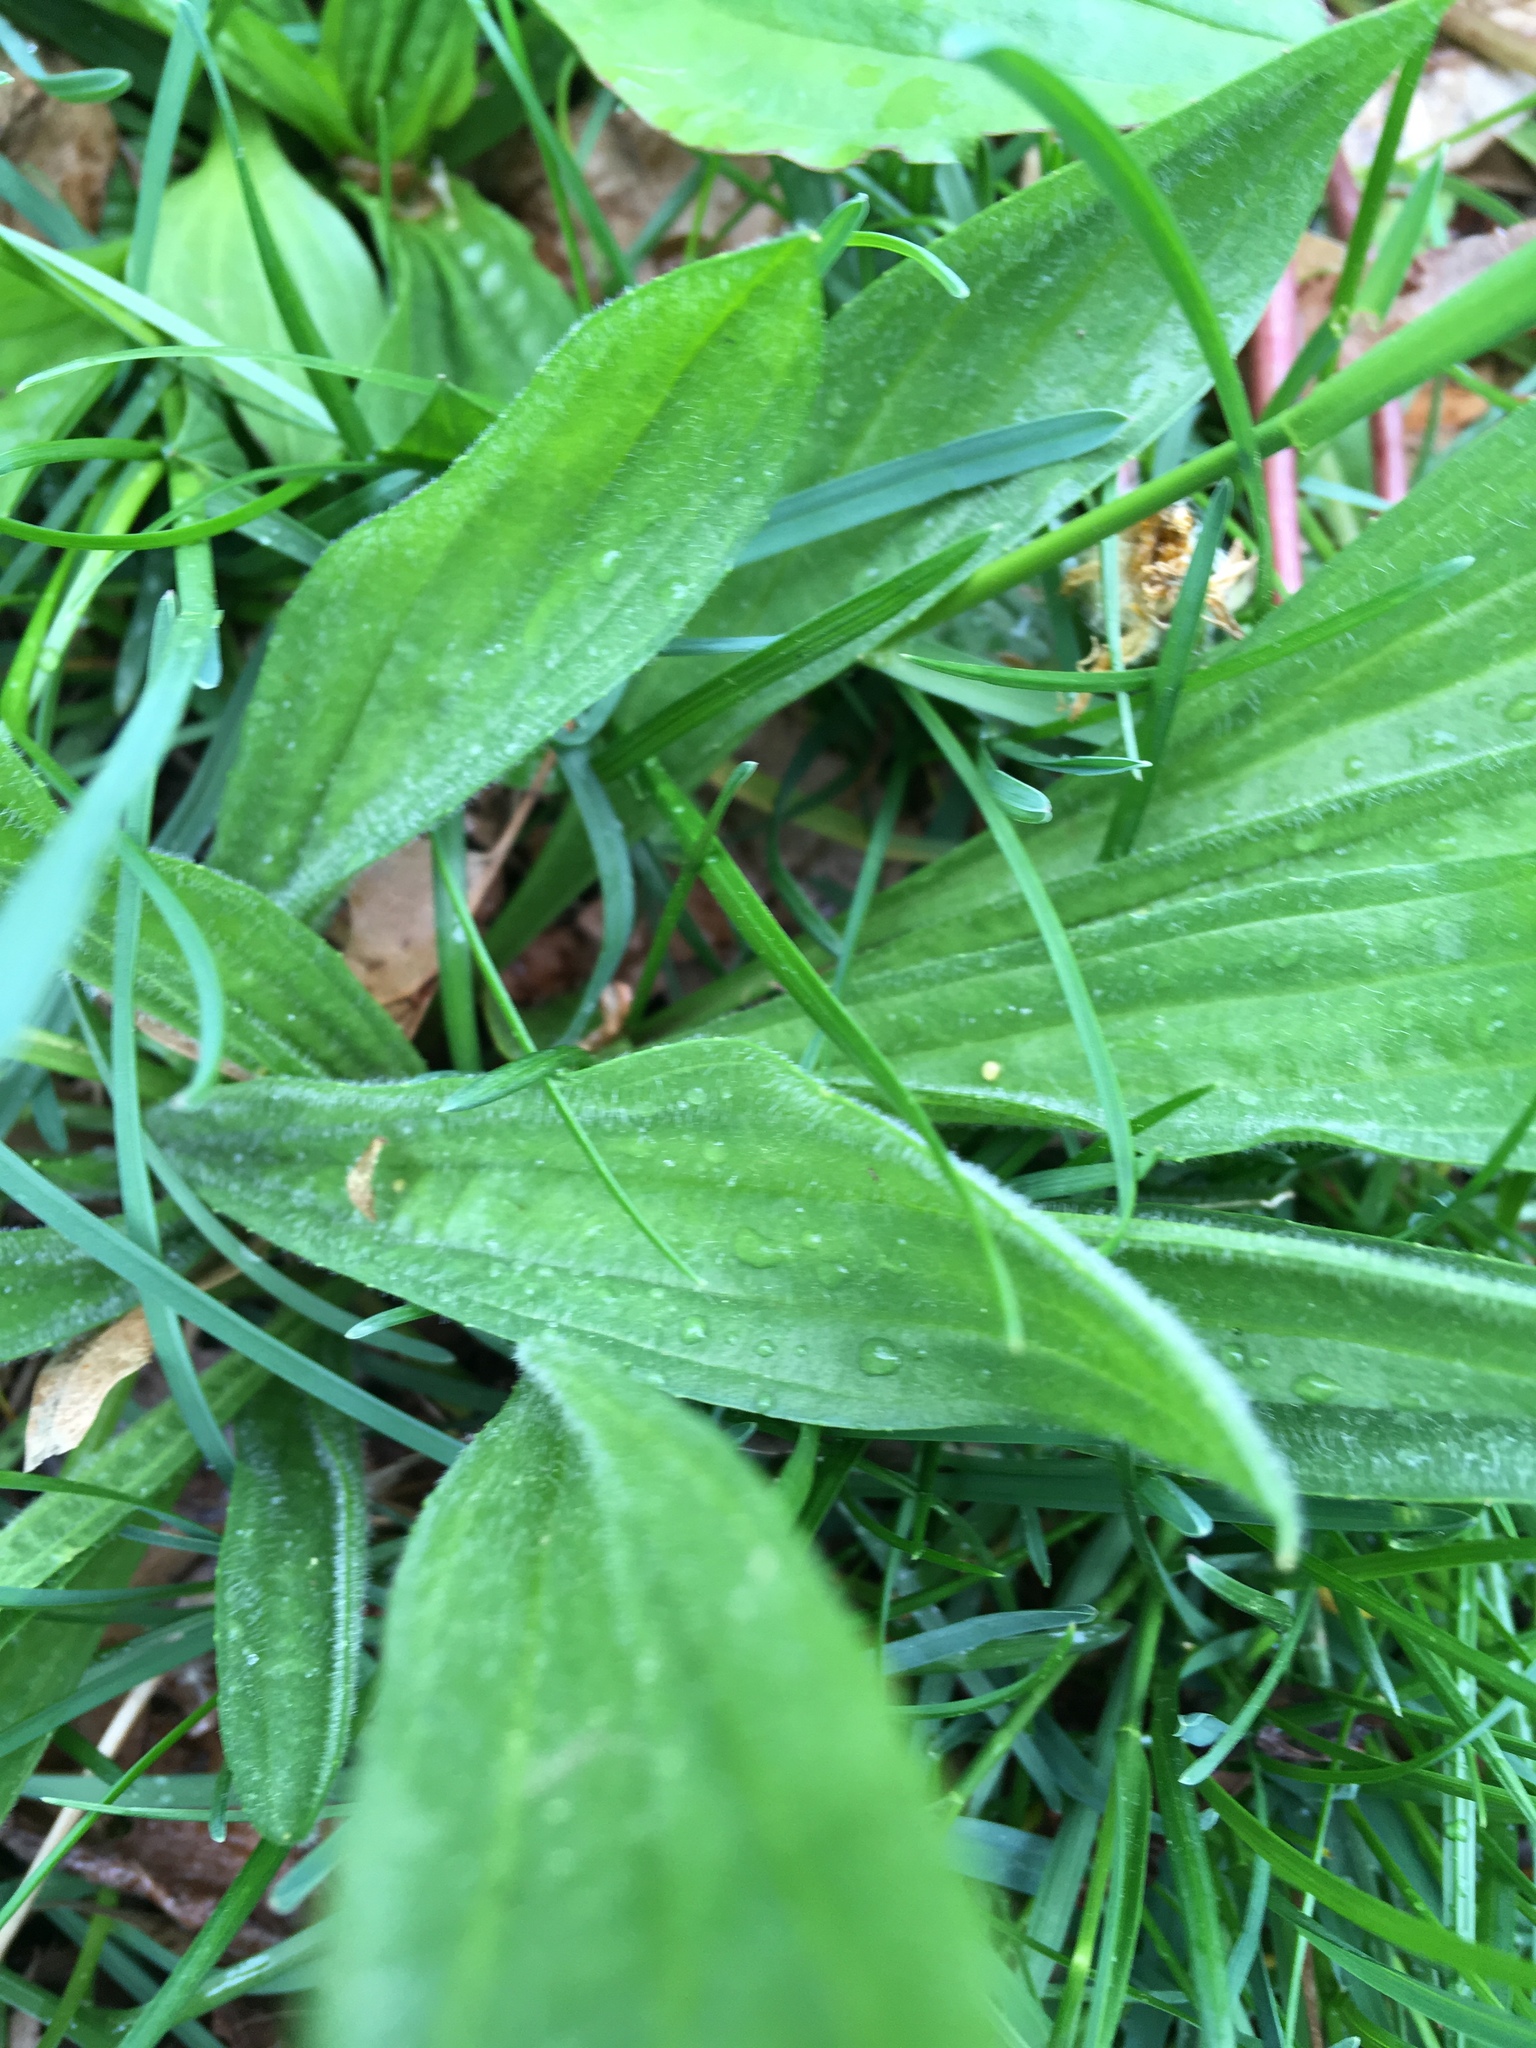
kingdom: Plantae
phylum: Tracheophyta
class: Magnoliopsida
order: Lamiales
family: Plantaginaceae
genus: Plantago
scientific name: Plantago lanceolata
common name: Ribwort plantain
